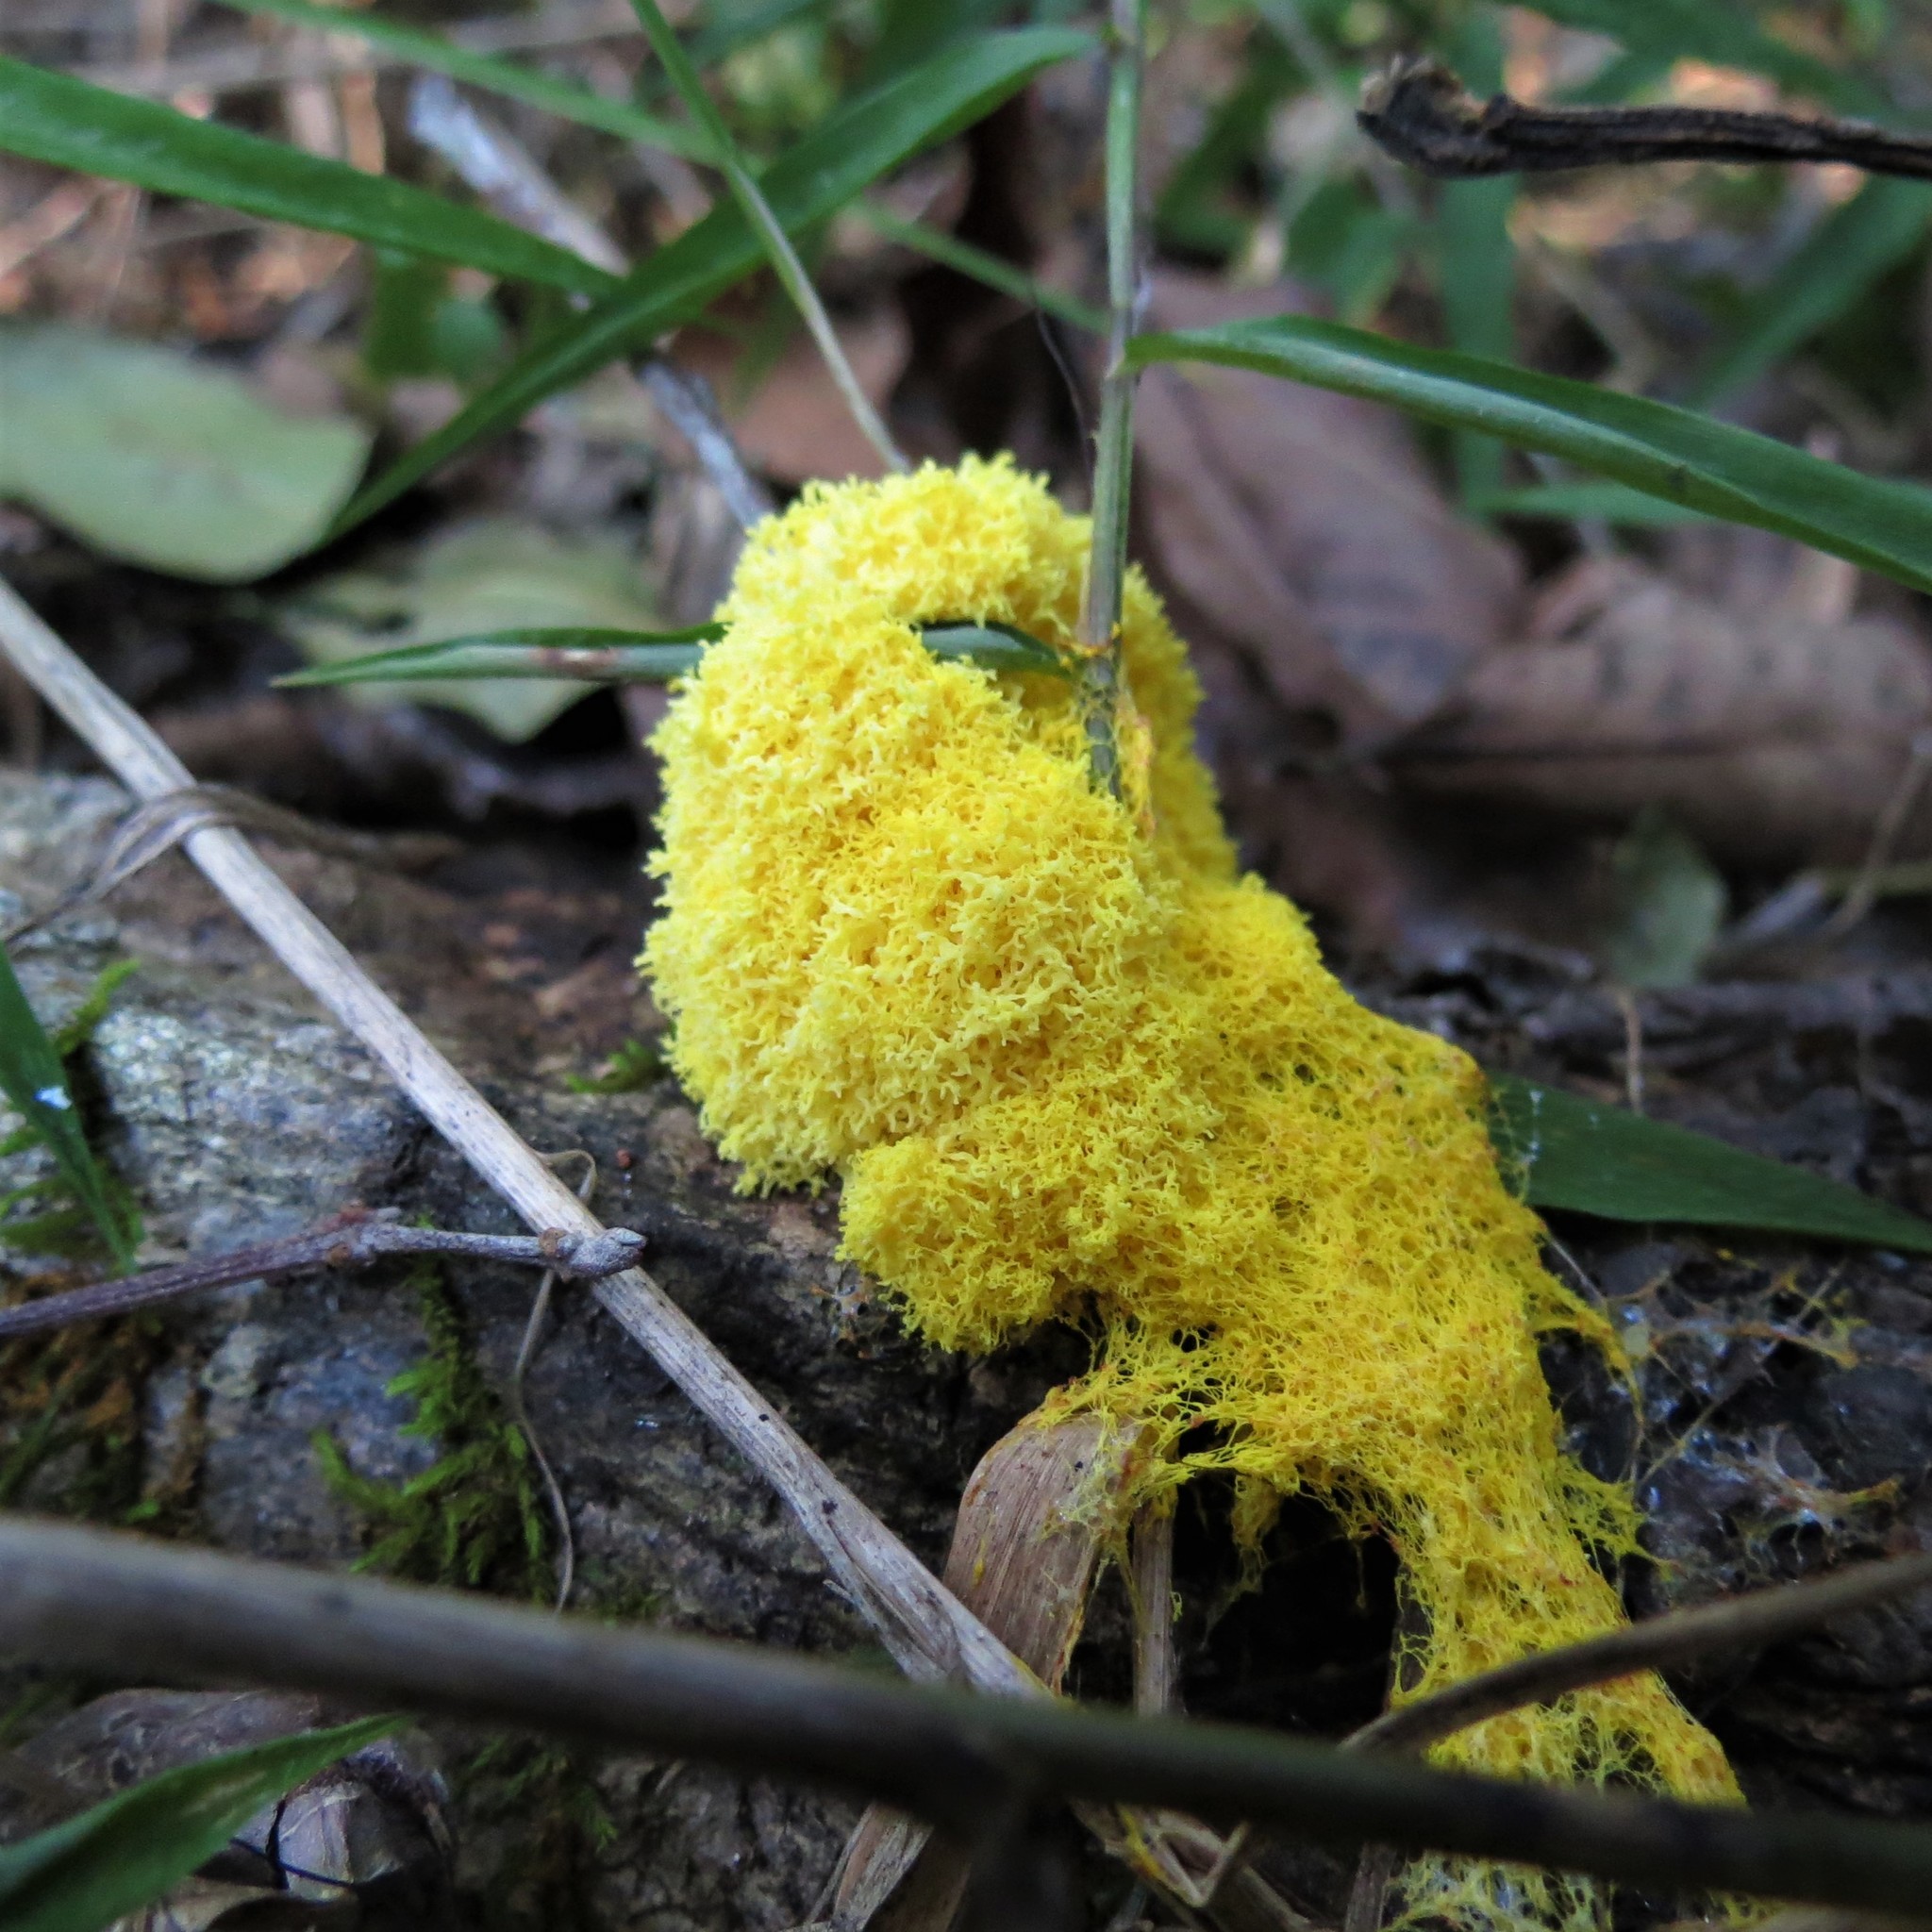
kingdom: Protozoa
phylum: Mycetozoa
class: Myxomycetes
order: Physarales
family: Physaraceae
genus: Fuligo
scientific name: Fuligo septica
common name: Dog vomit slime mold
